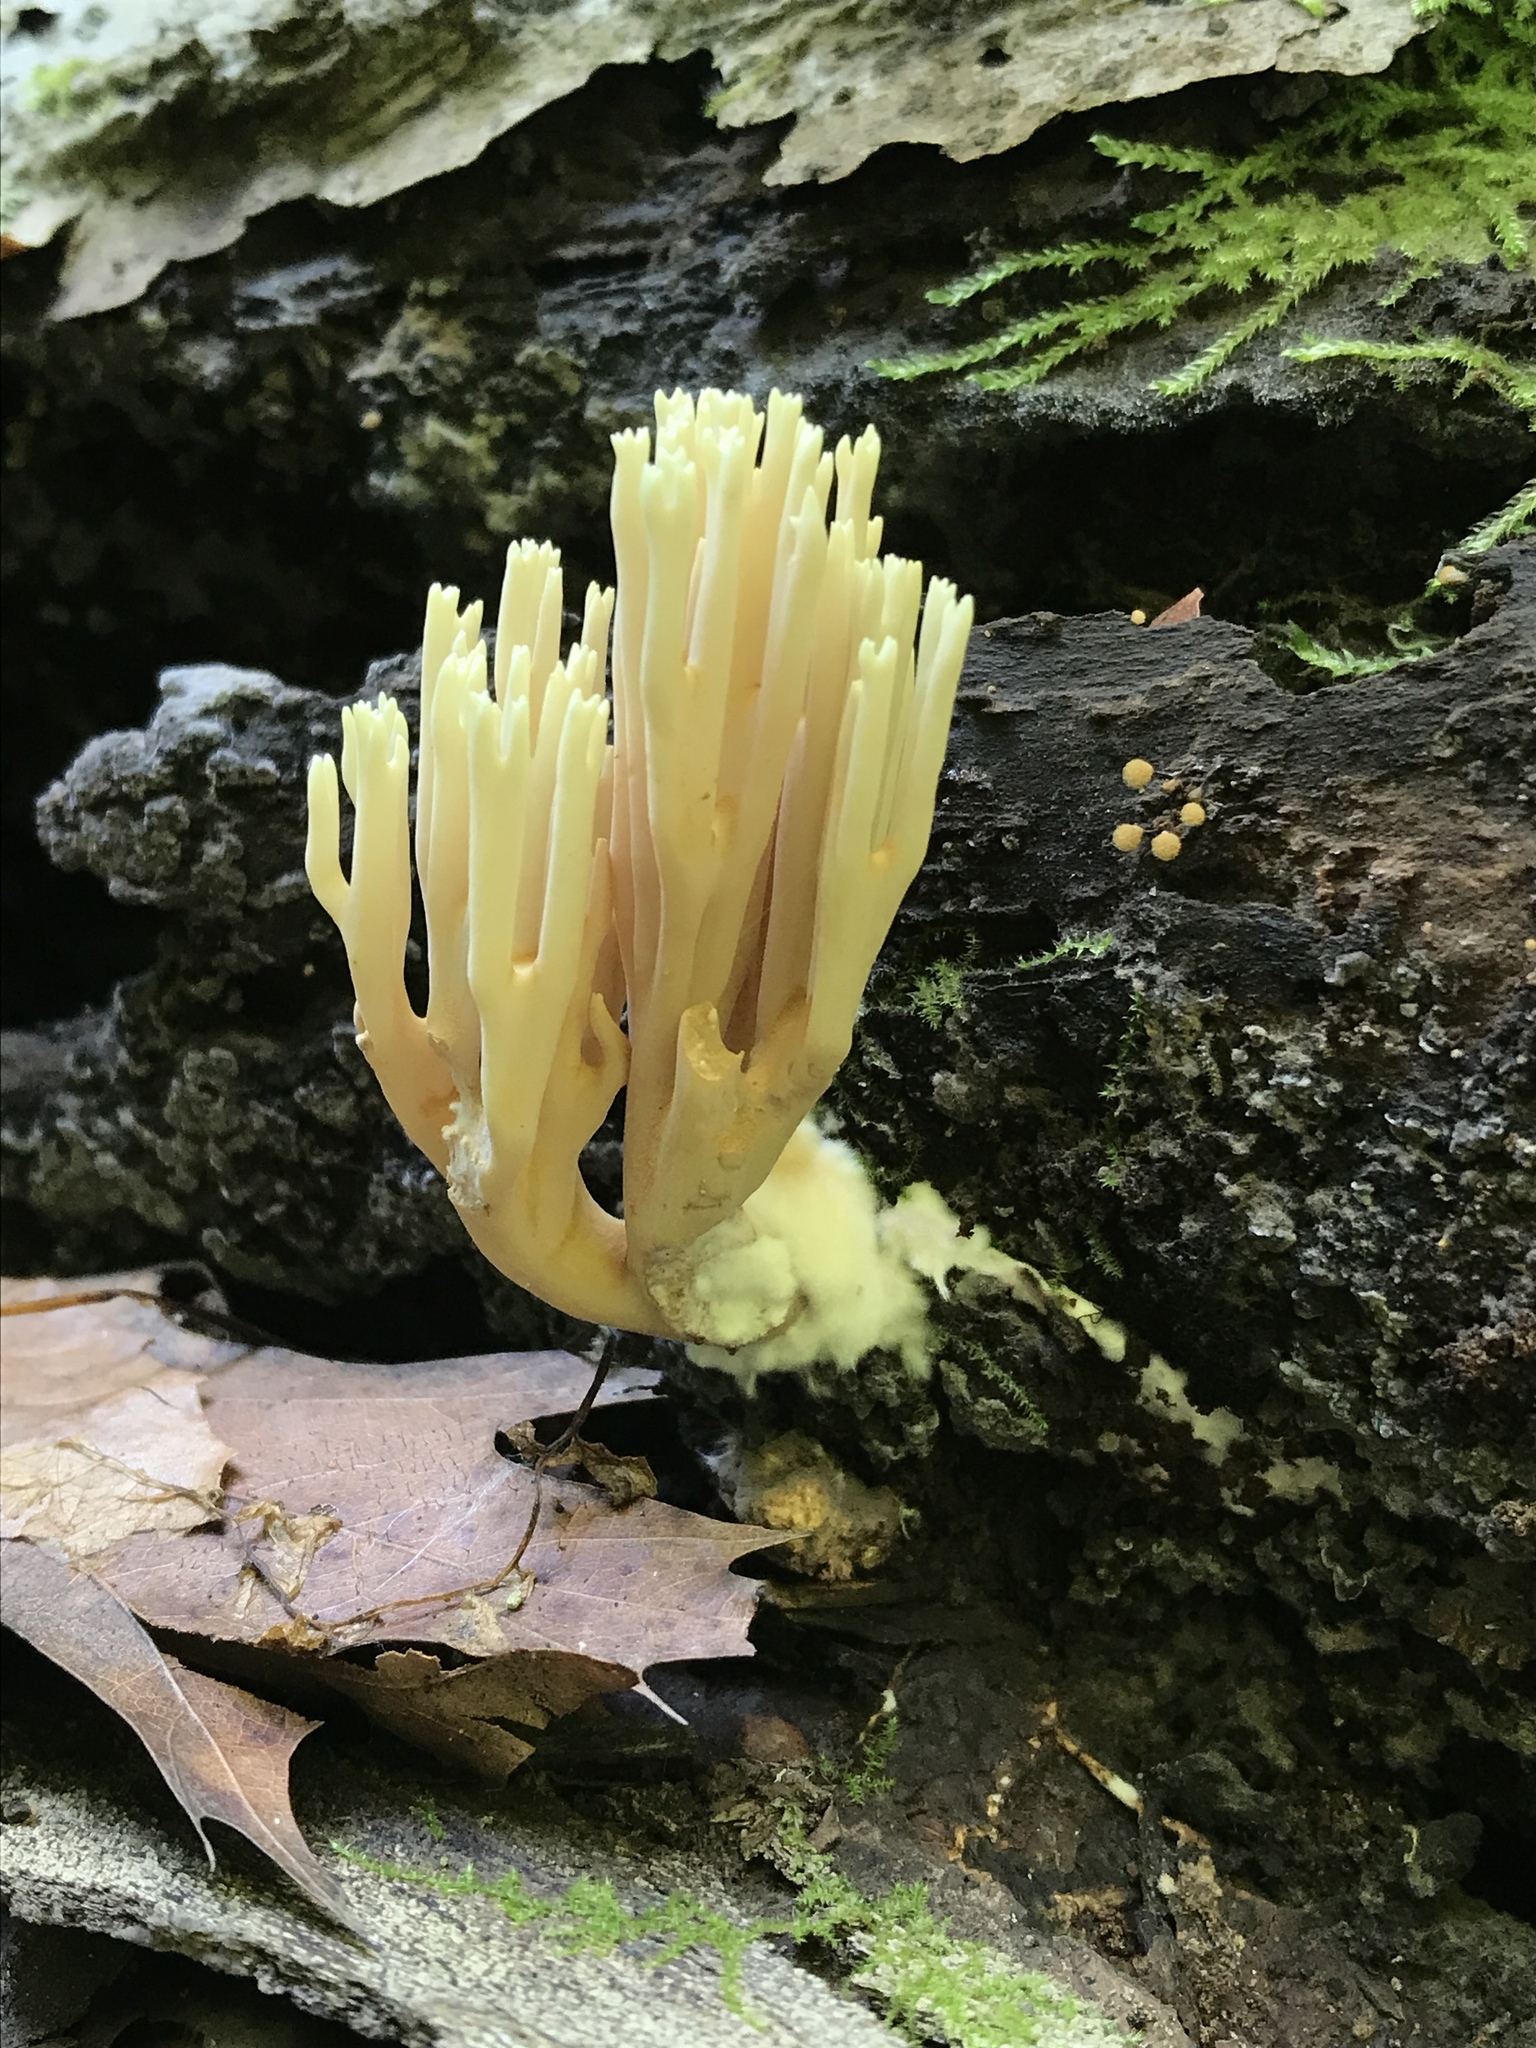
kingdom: Fungi
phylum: Basidiomycota
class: Agaricomycetes
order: Gomphales
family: Gomphaceae
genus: Ramaria
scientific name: Ramaria stricta
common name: Upright coral
